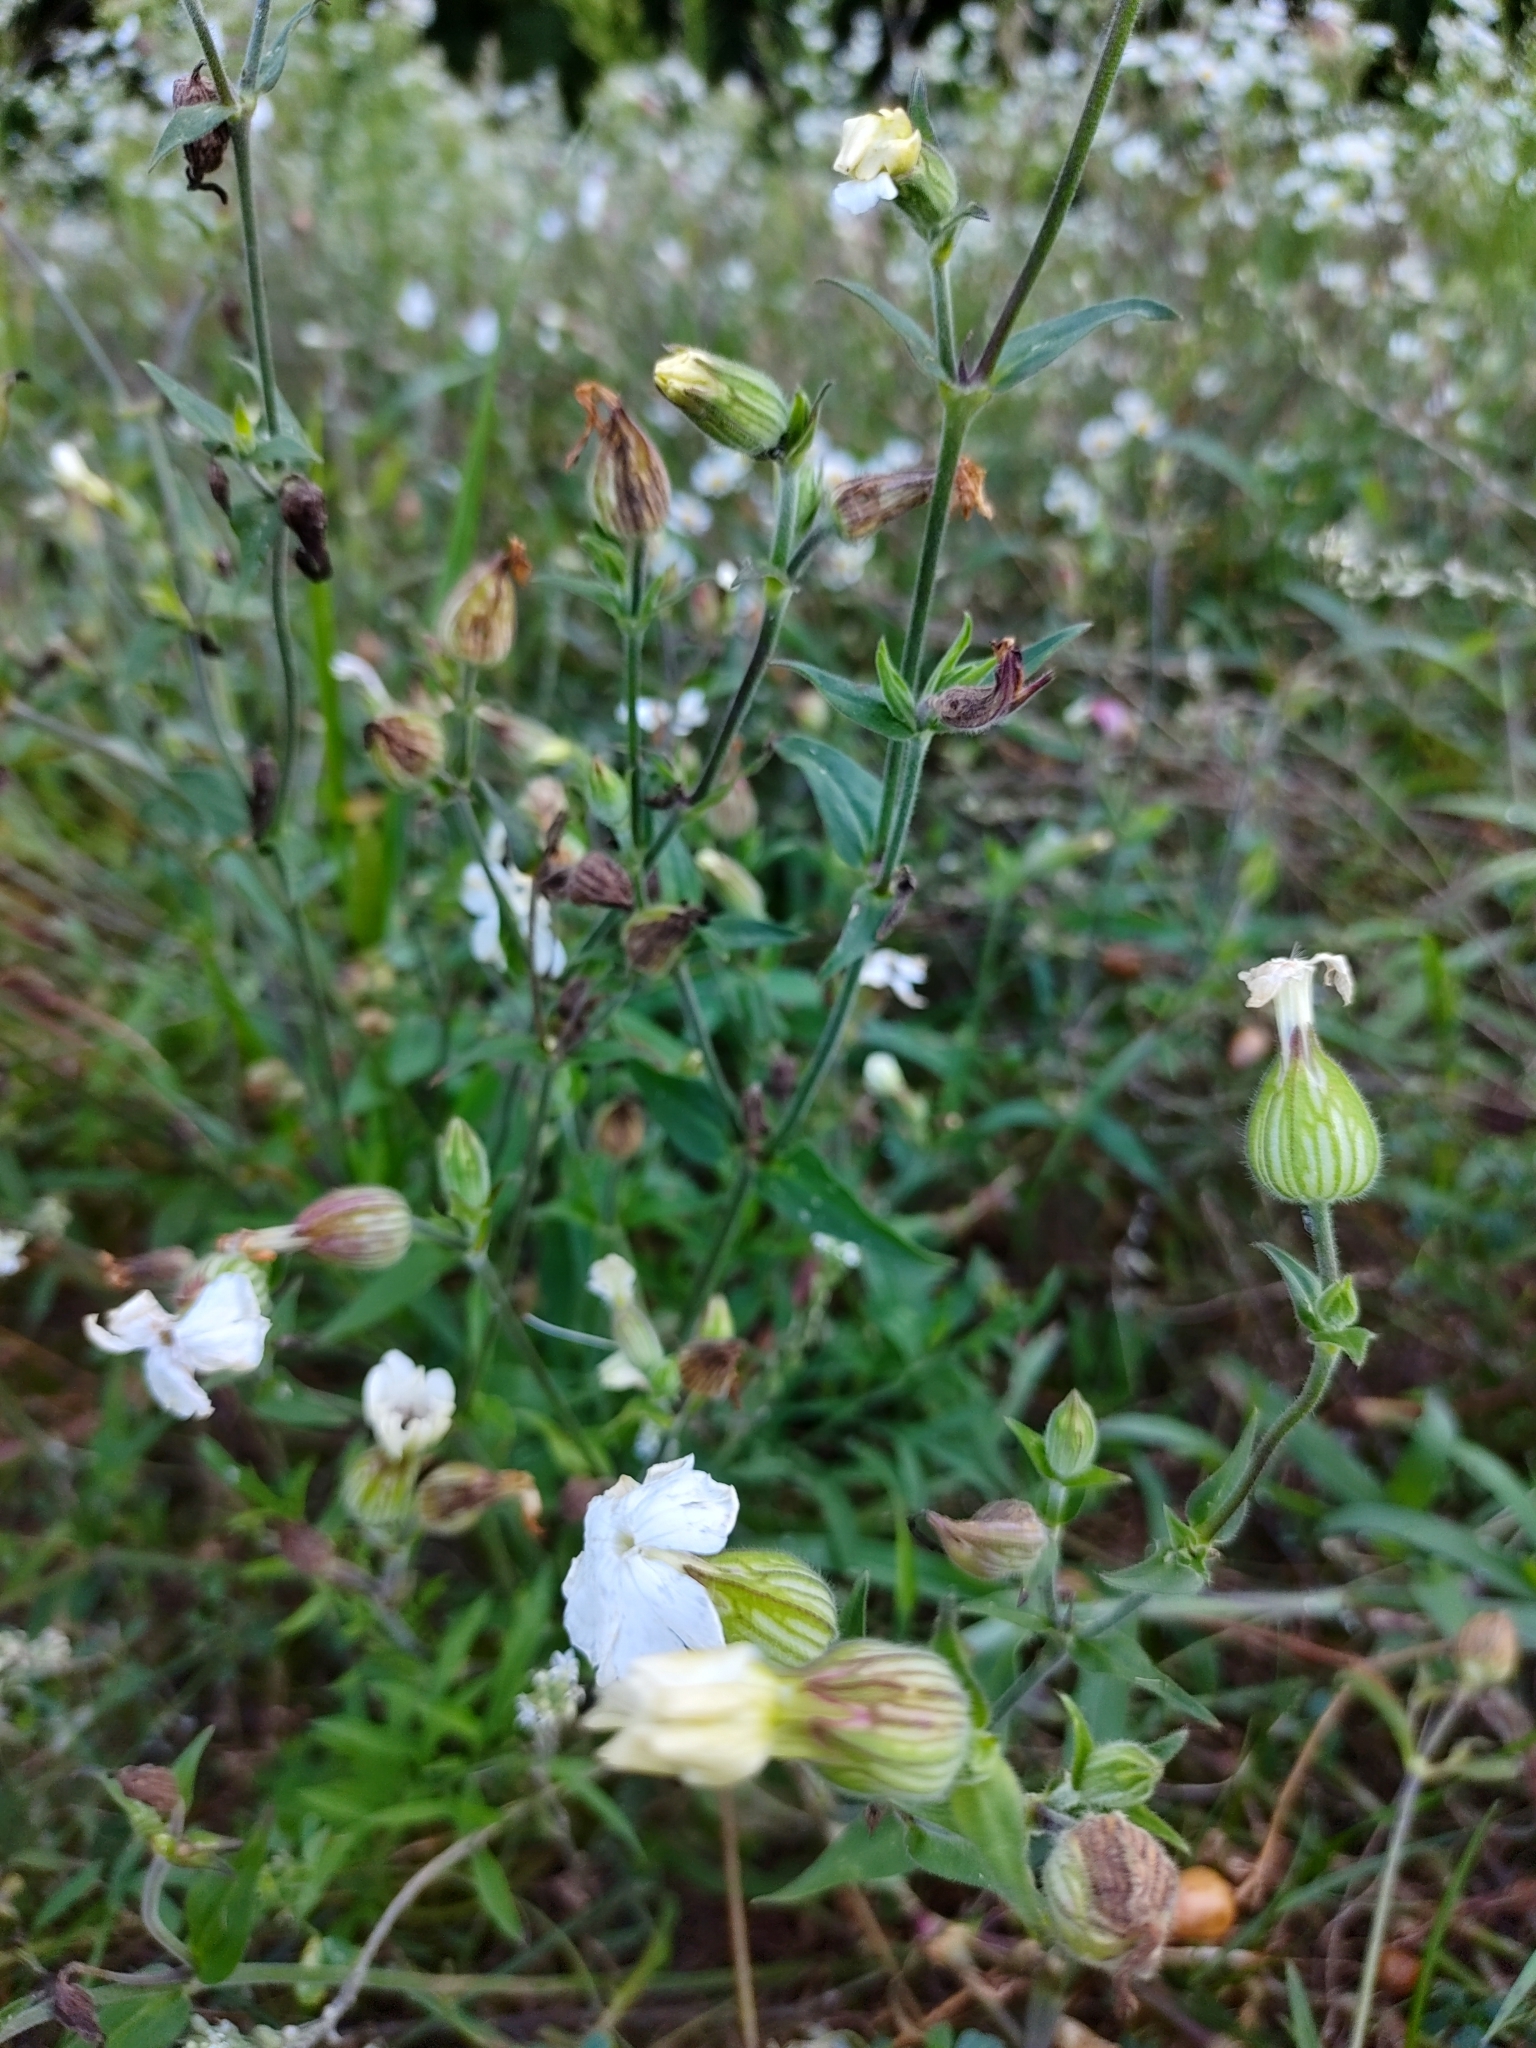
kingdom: Plantae
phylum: Tracheophyta
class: Magnoliopsida
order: Caryophyllales
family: Caryophyllaceae
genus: Silene
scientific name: Silene latifolia
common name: White campion
